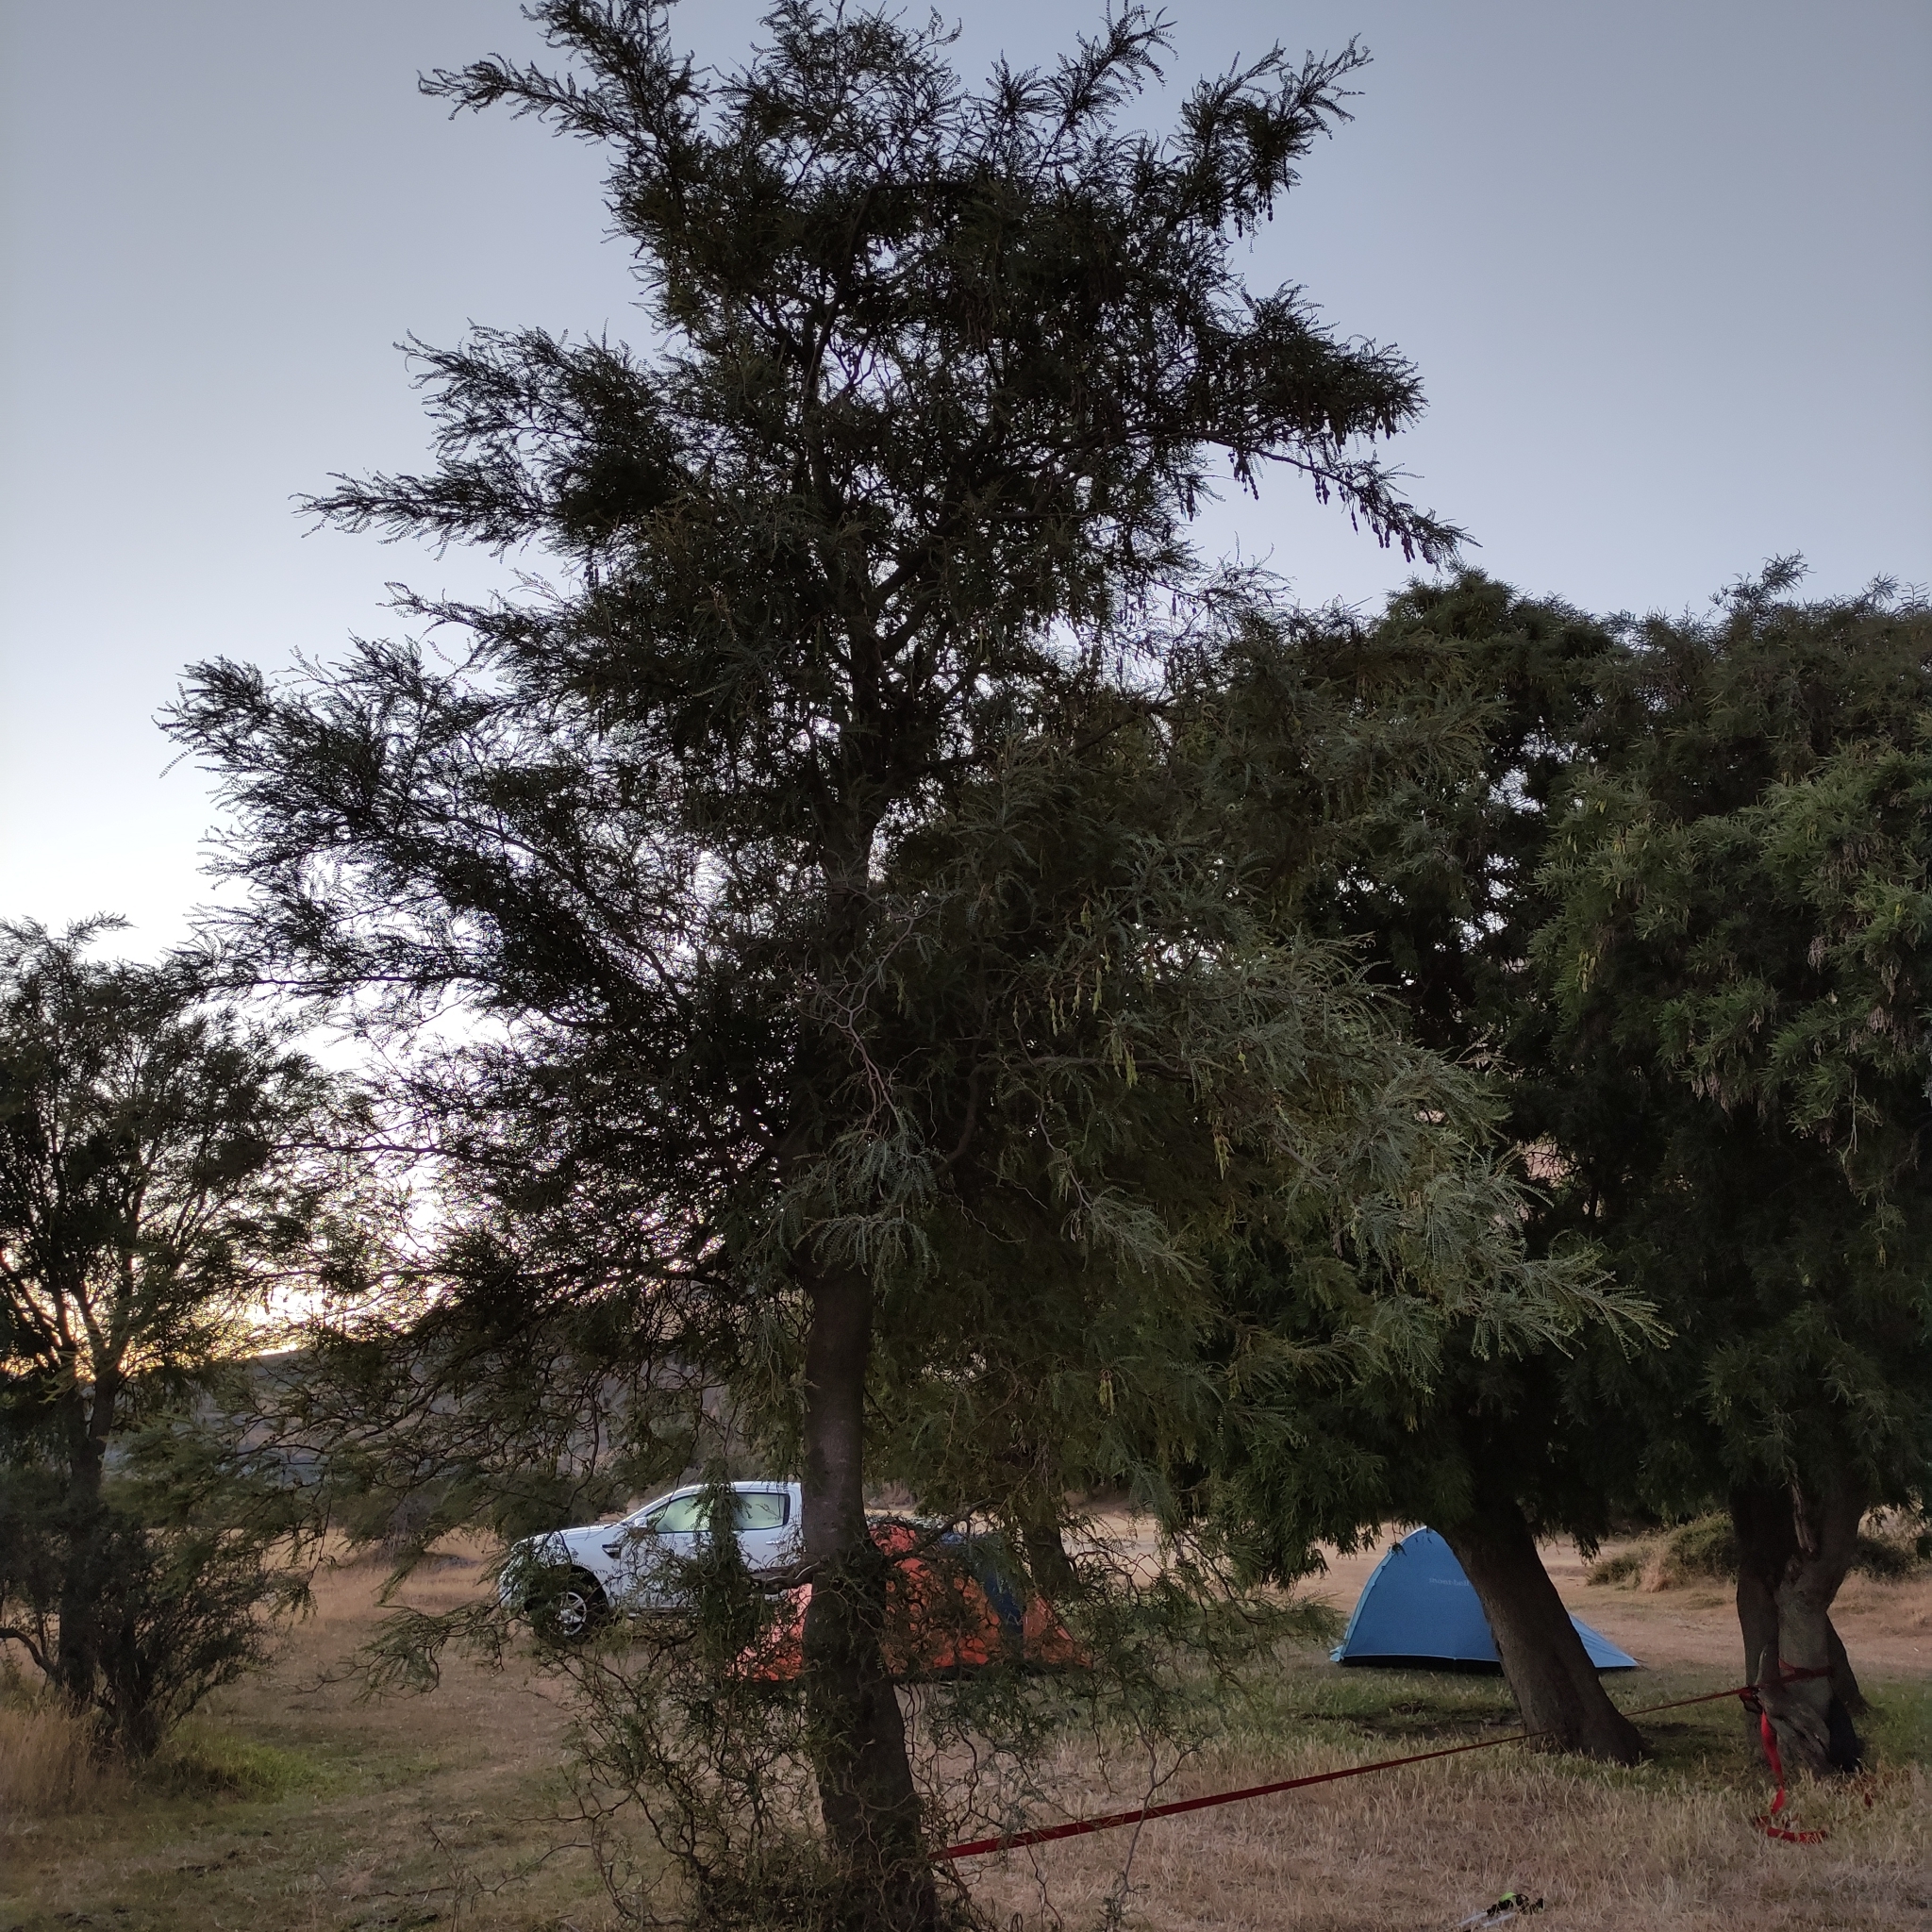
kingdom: Plantae
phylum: Tracheophyta
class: Magnoliopsida
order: Fabales
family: Fabaceae
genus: Sophora
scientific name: Sophora microphylla
